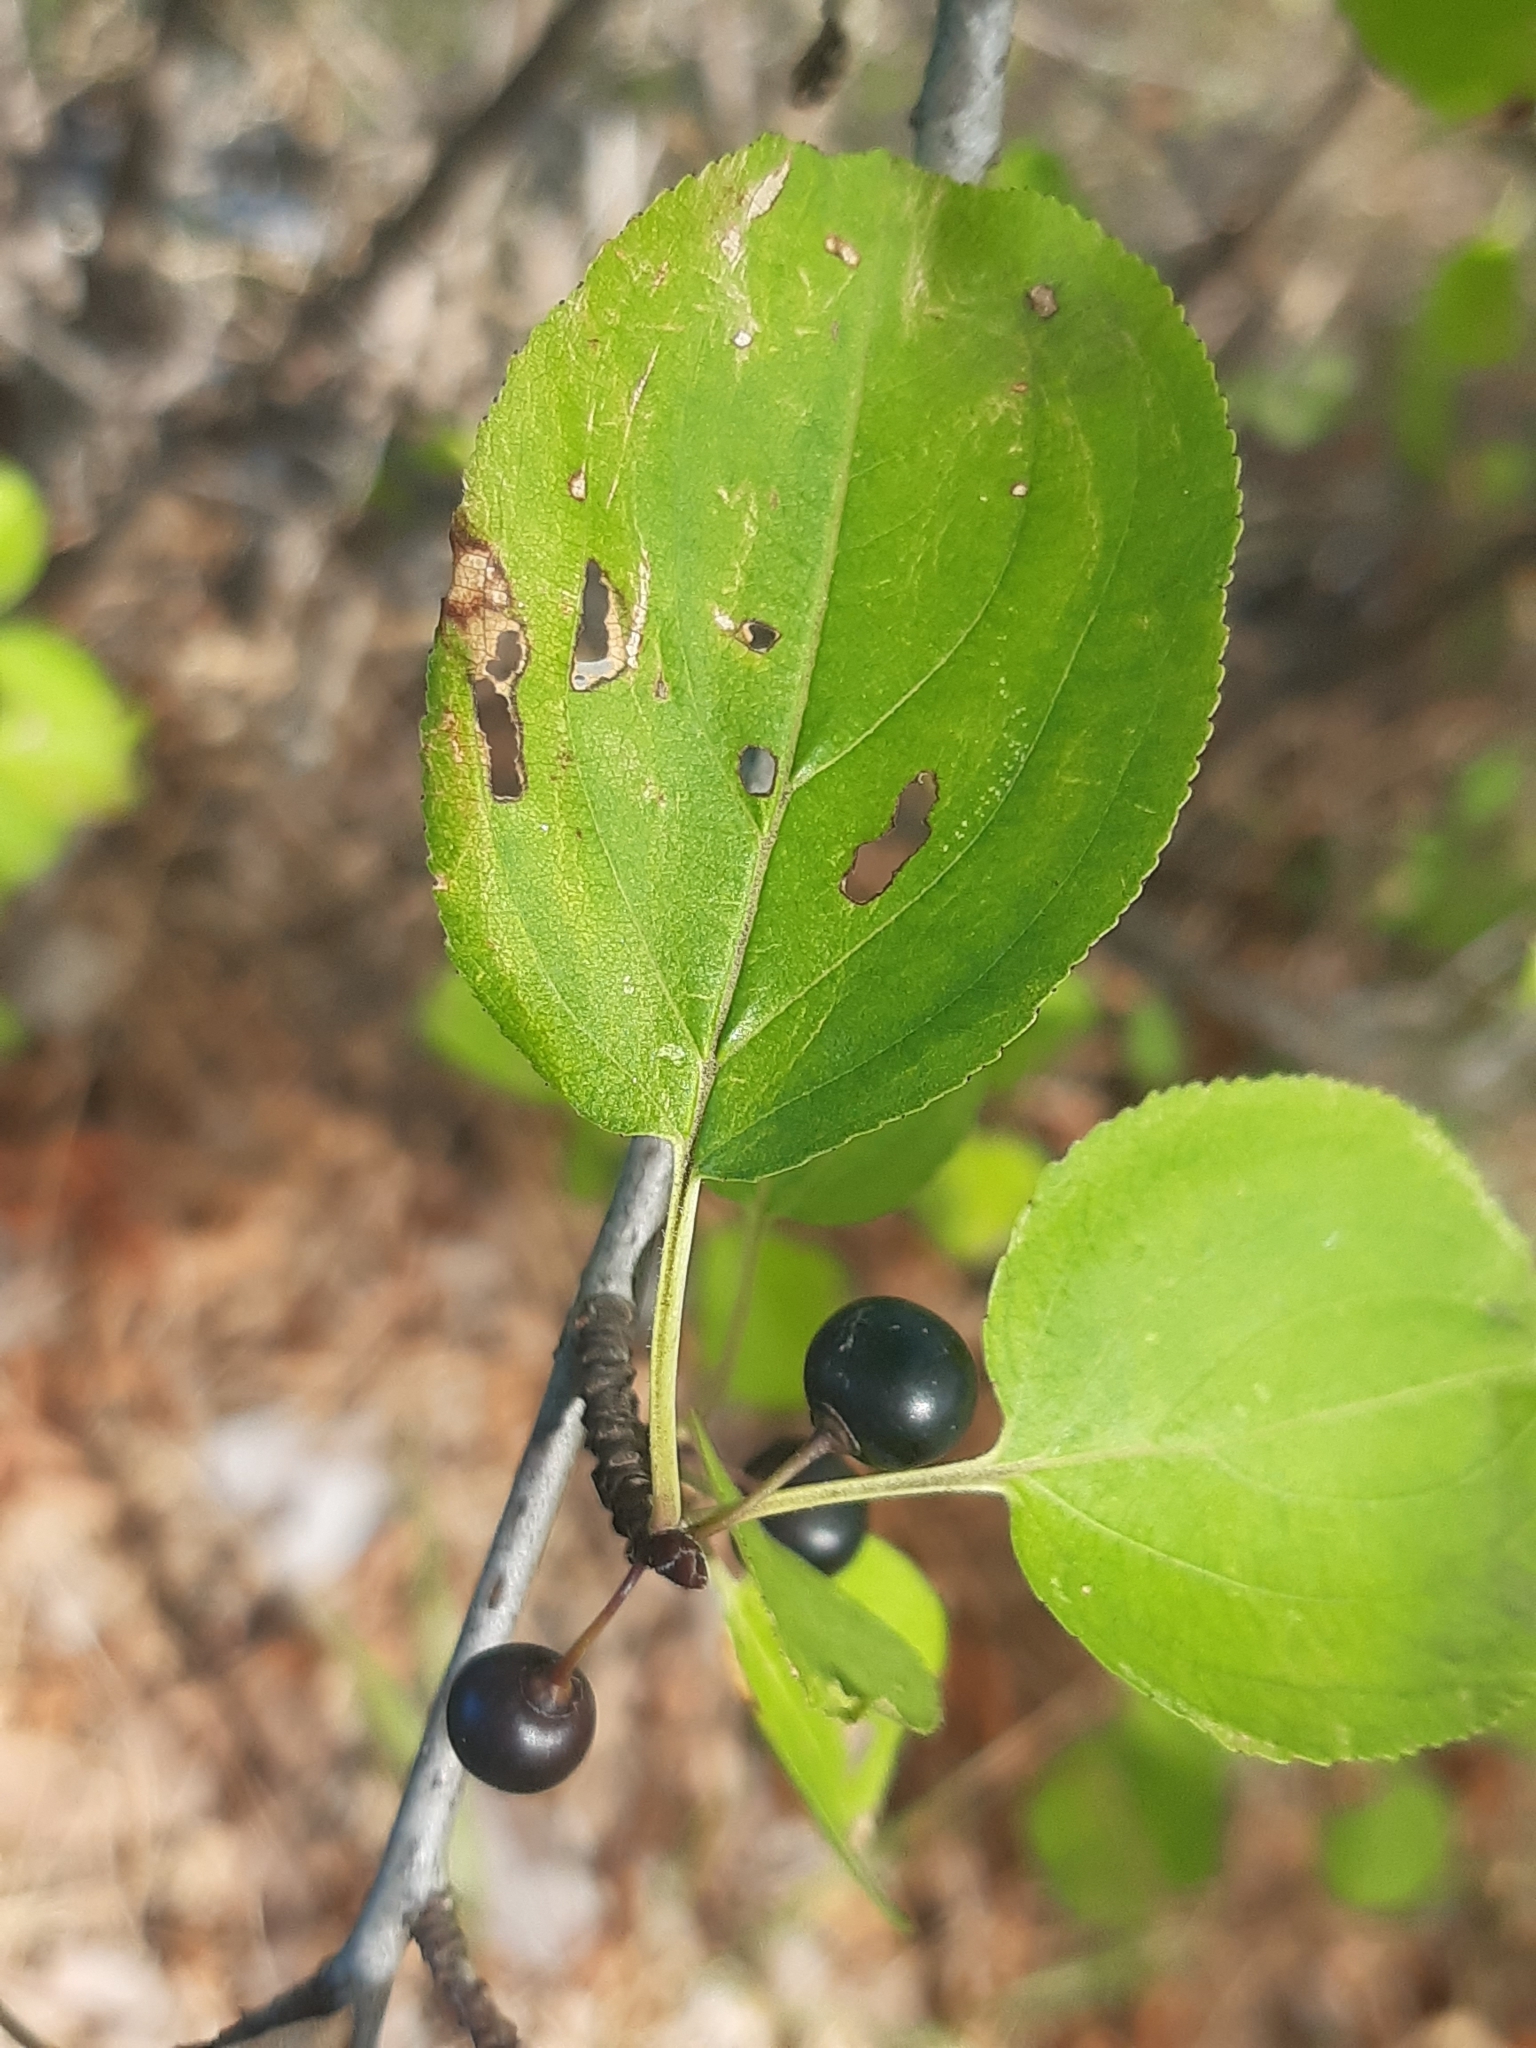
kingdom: Plantae
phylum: Tracheophyta
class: Magnoliopsida
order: Rosales
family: Rhamnaceae
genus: Rhamnus
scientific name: Rhamnus cathartica
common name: Common buckthorn
